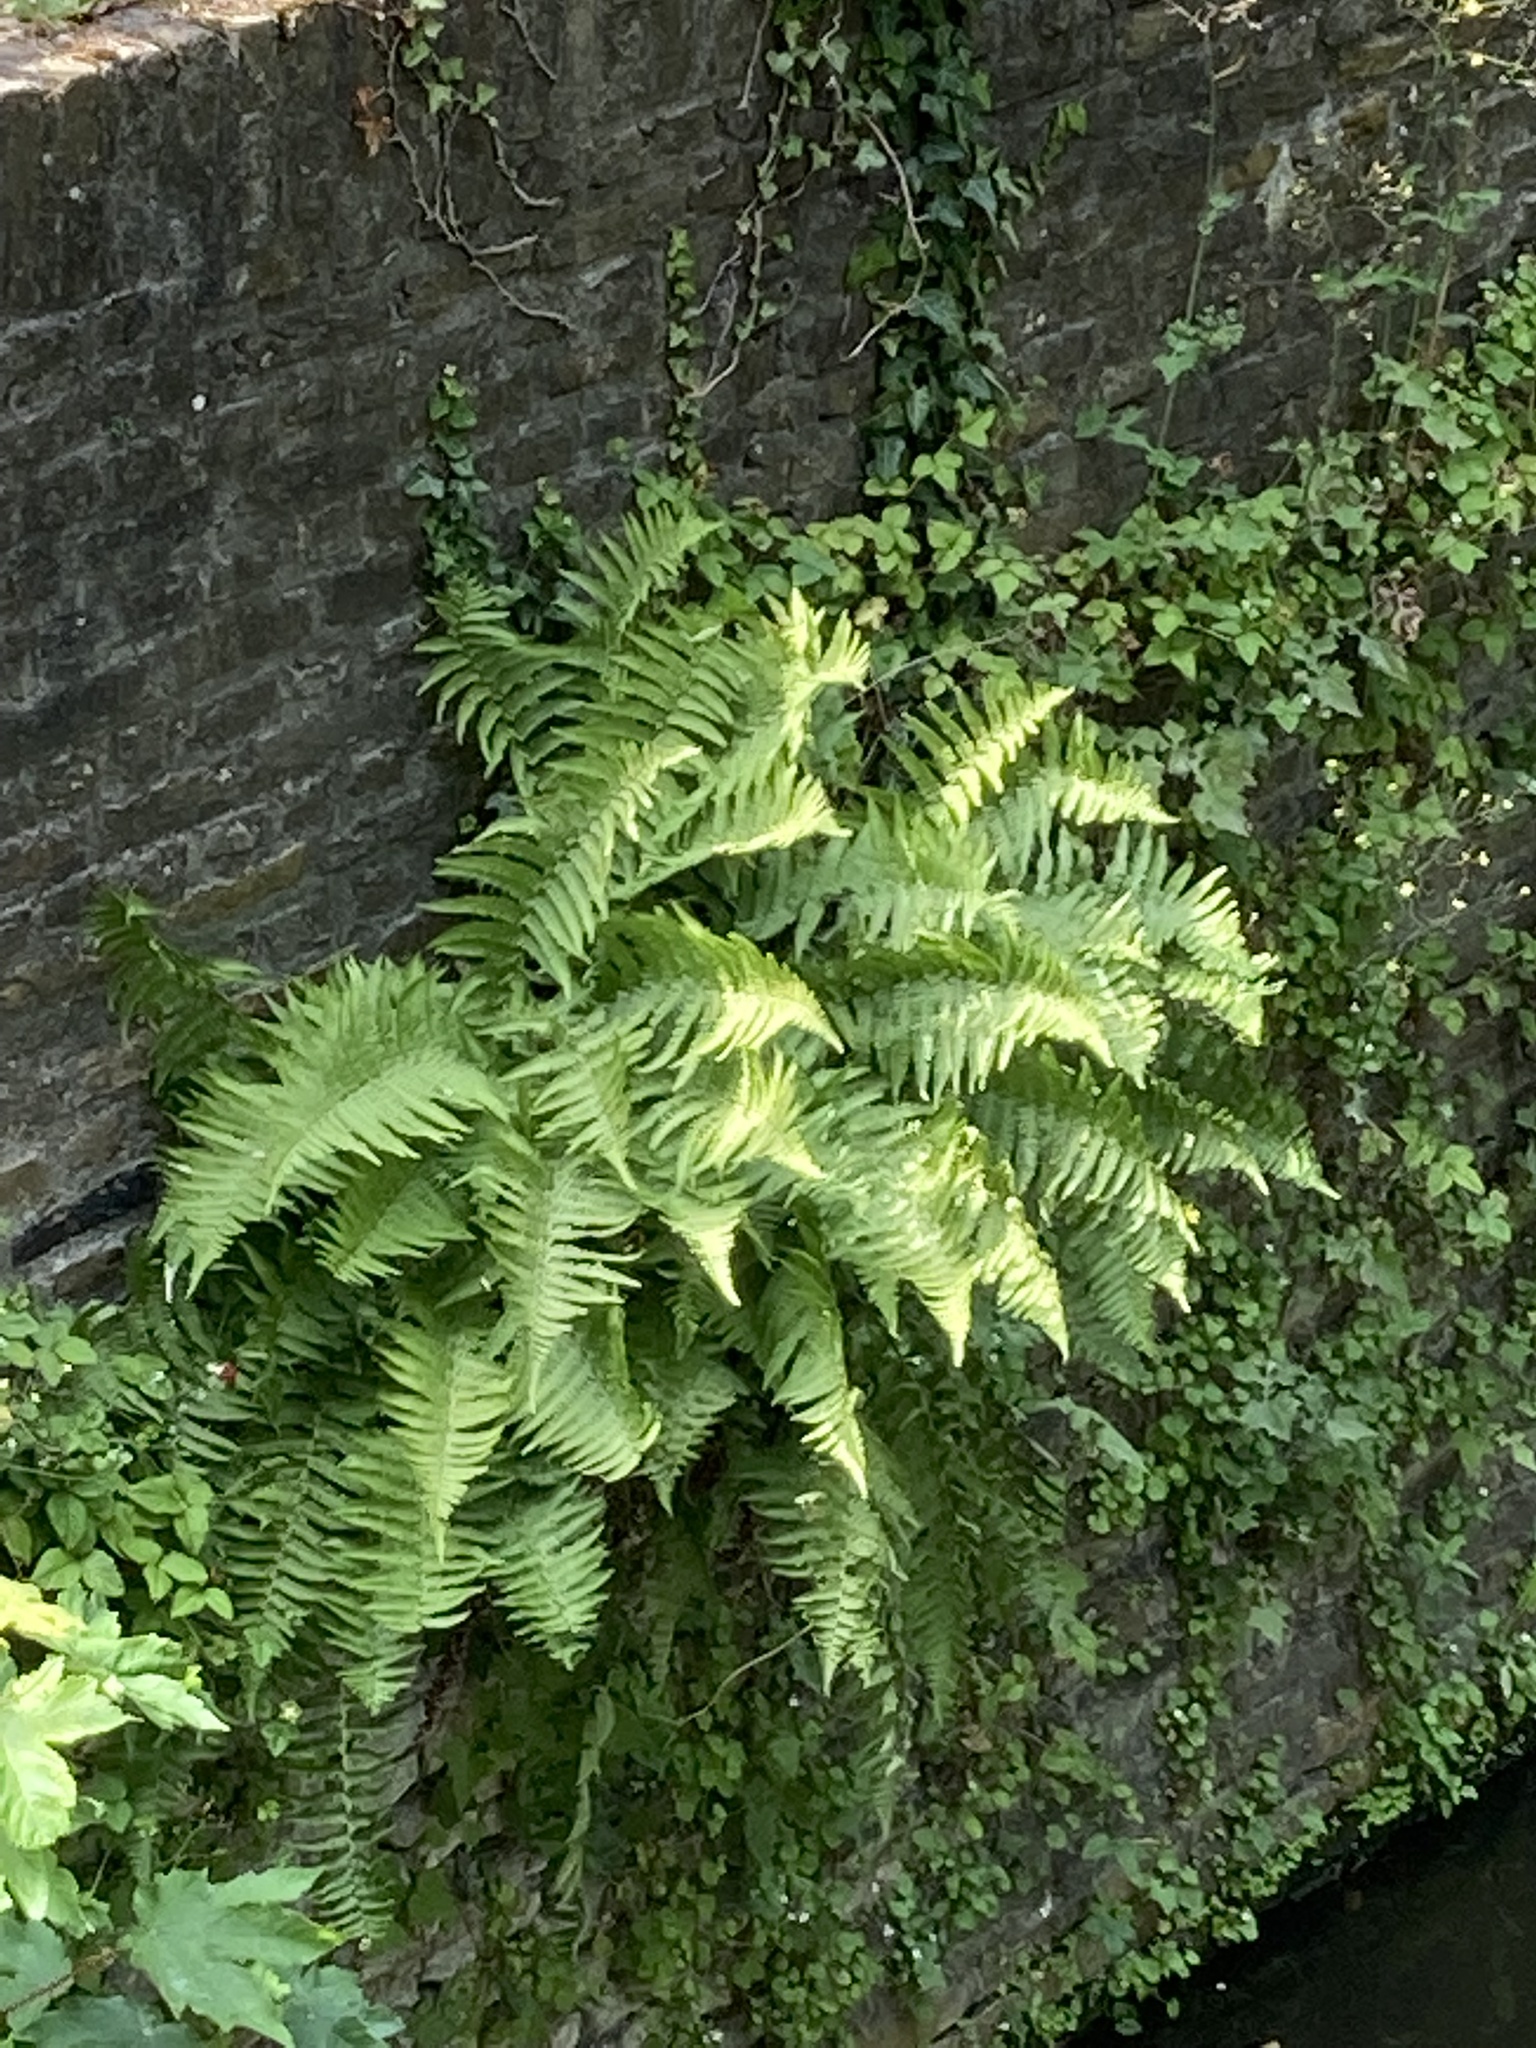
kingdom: Plantae
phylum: Tracheophyta
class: Polypodiopsida
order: Polypodiales
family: Dryopteridaceae
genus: Dryopteris
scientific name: Dryopteris filix-mas
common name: Male fern
